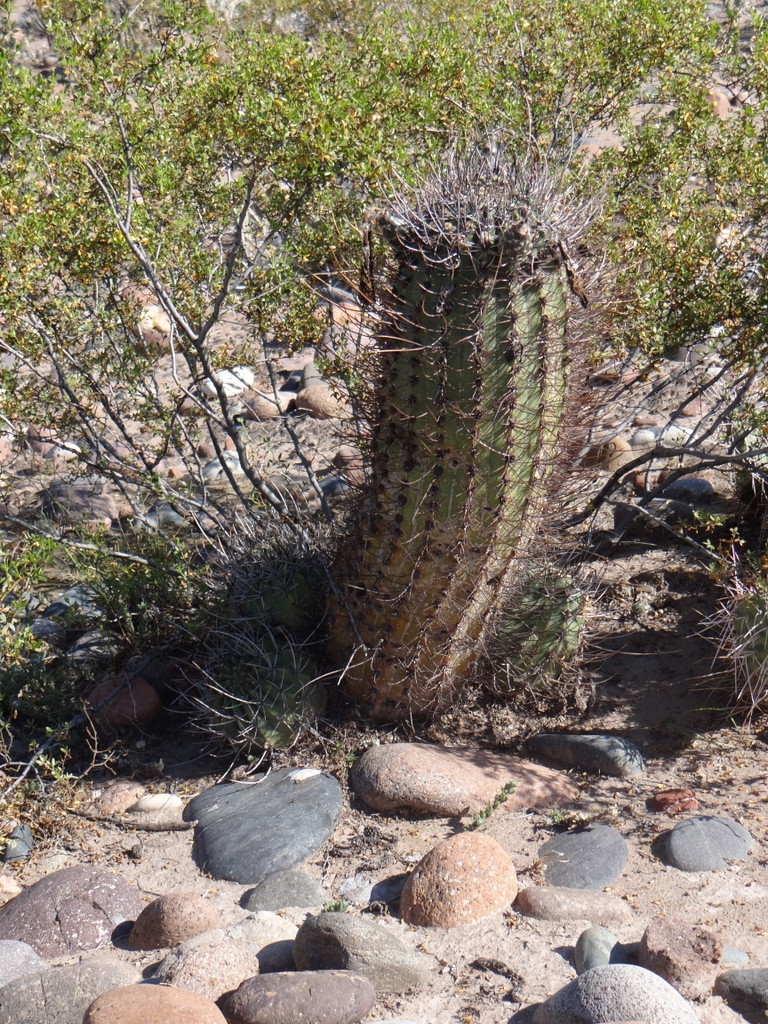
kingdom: Plantae
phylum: Tracheophyta
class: Magnoliopsida
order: Caryophyllales
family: Cactaceae
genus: Acanthocalycium
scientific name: Acanthocalycium leucanthum
